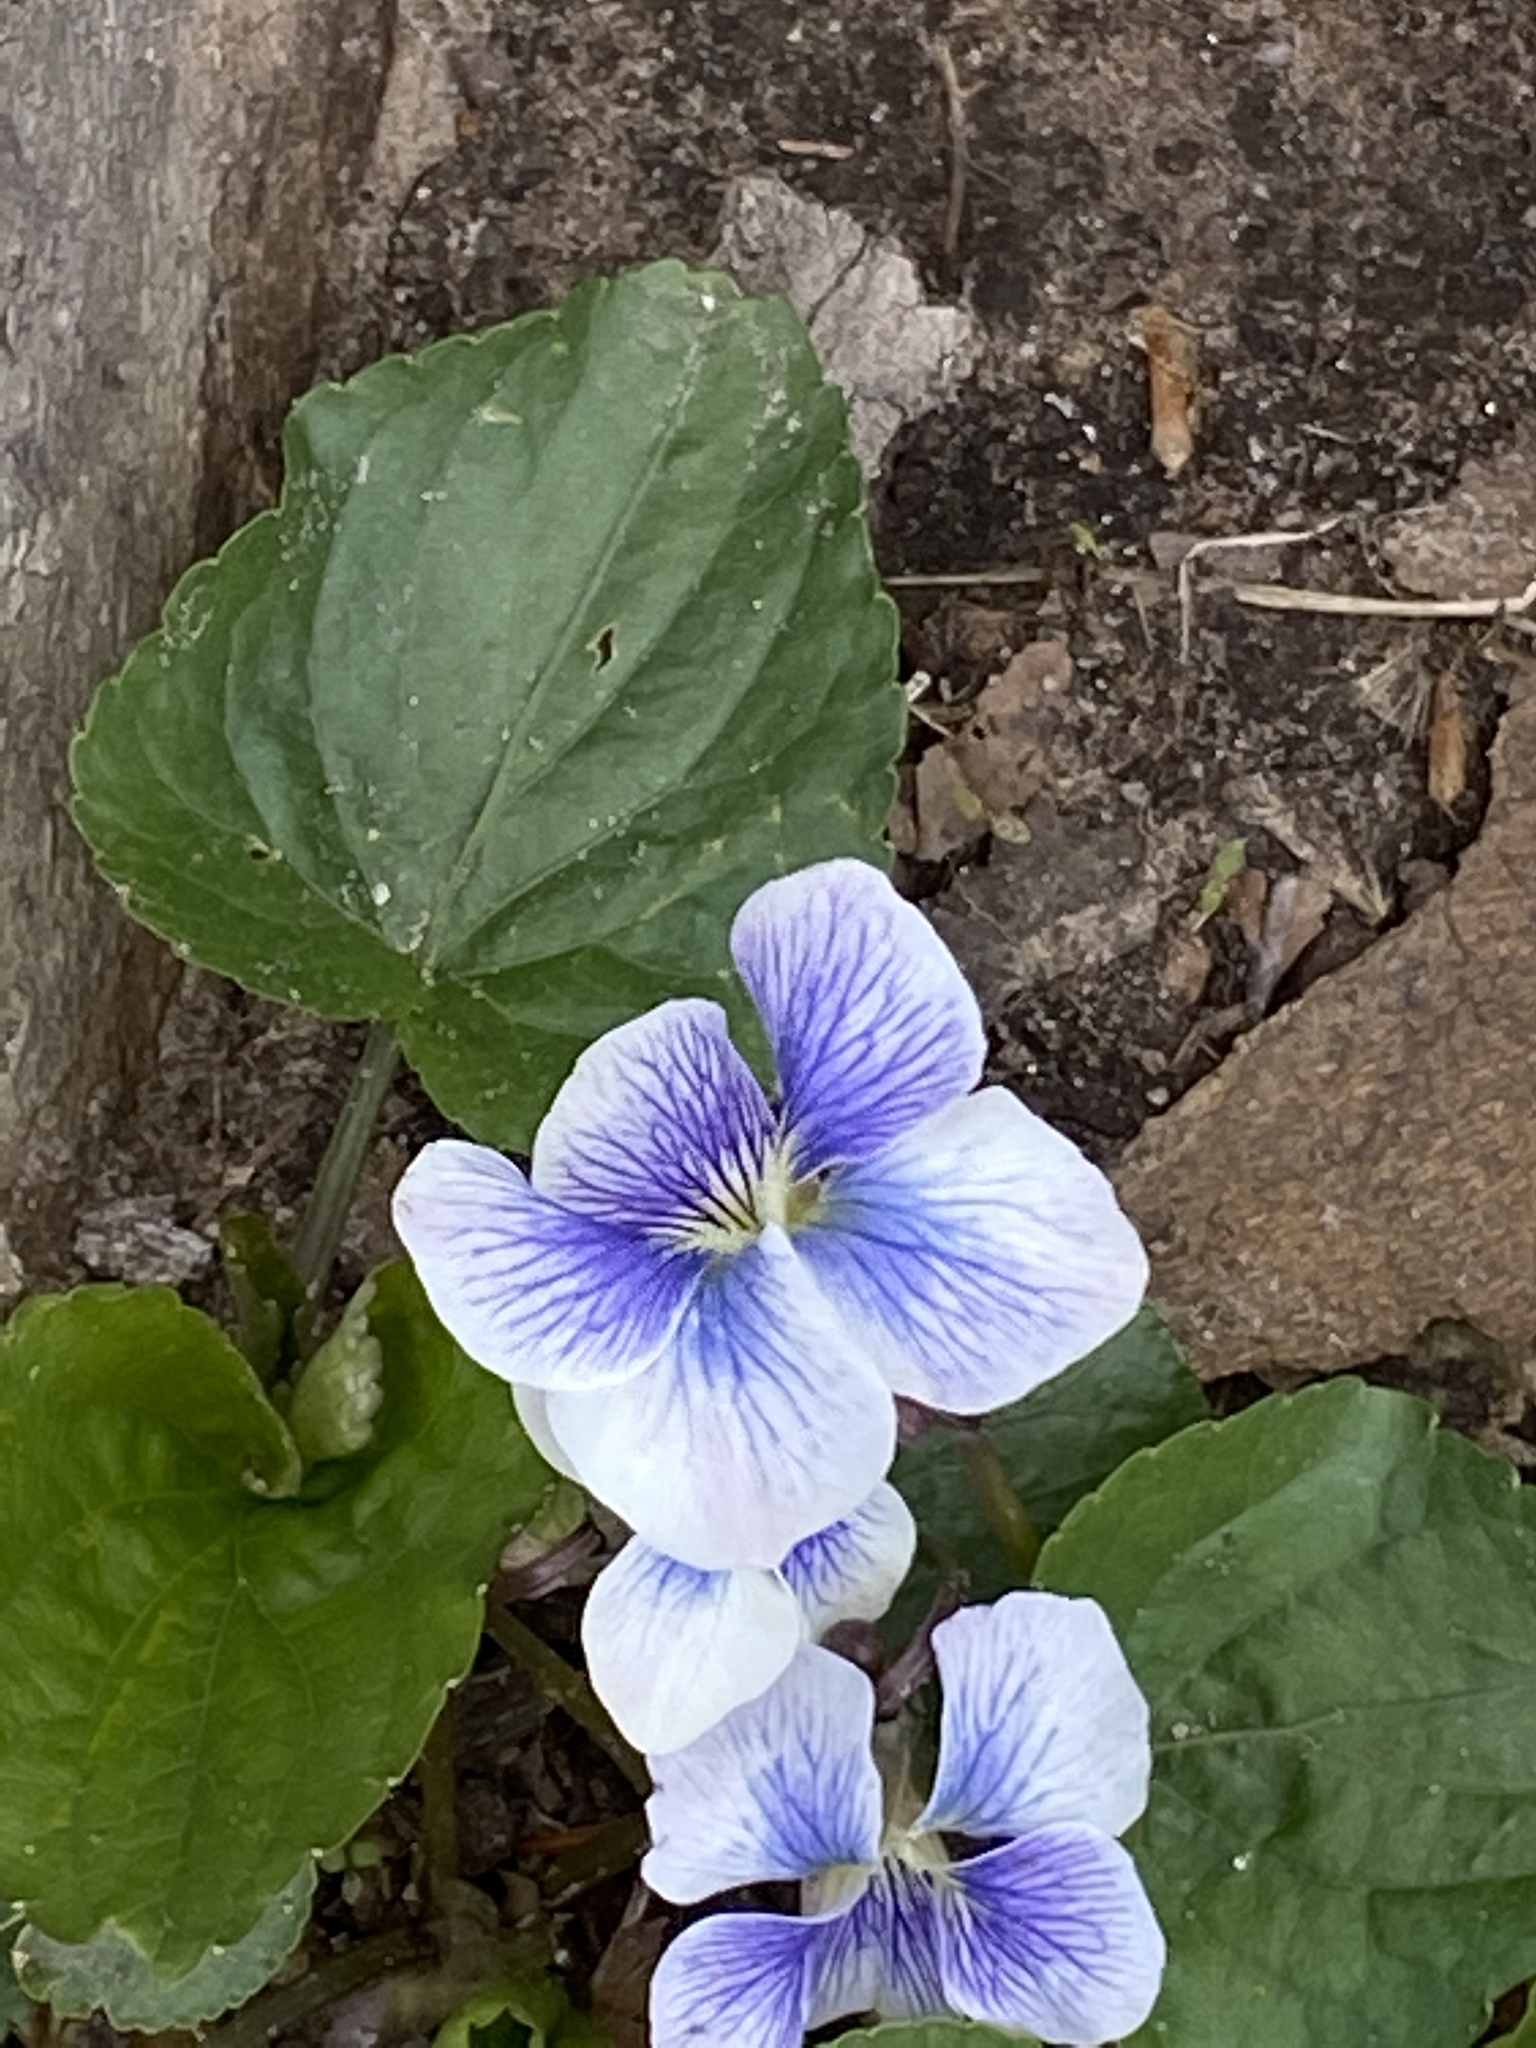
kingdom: Plantae
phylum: Tracheophyta
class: Magnoliopsida
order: Malpighiales
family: Violaceae
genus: Viola
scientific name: Viola sororia
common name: Dooryard violet
